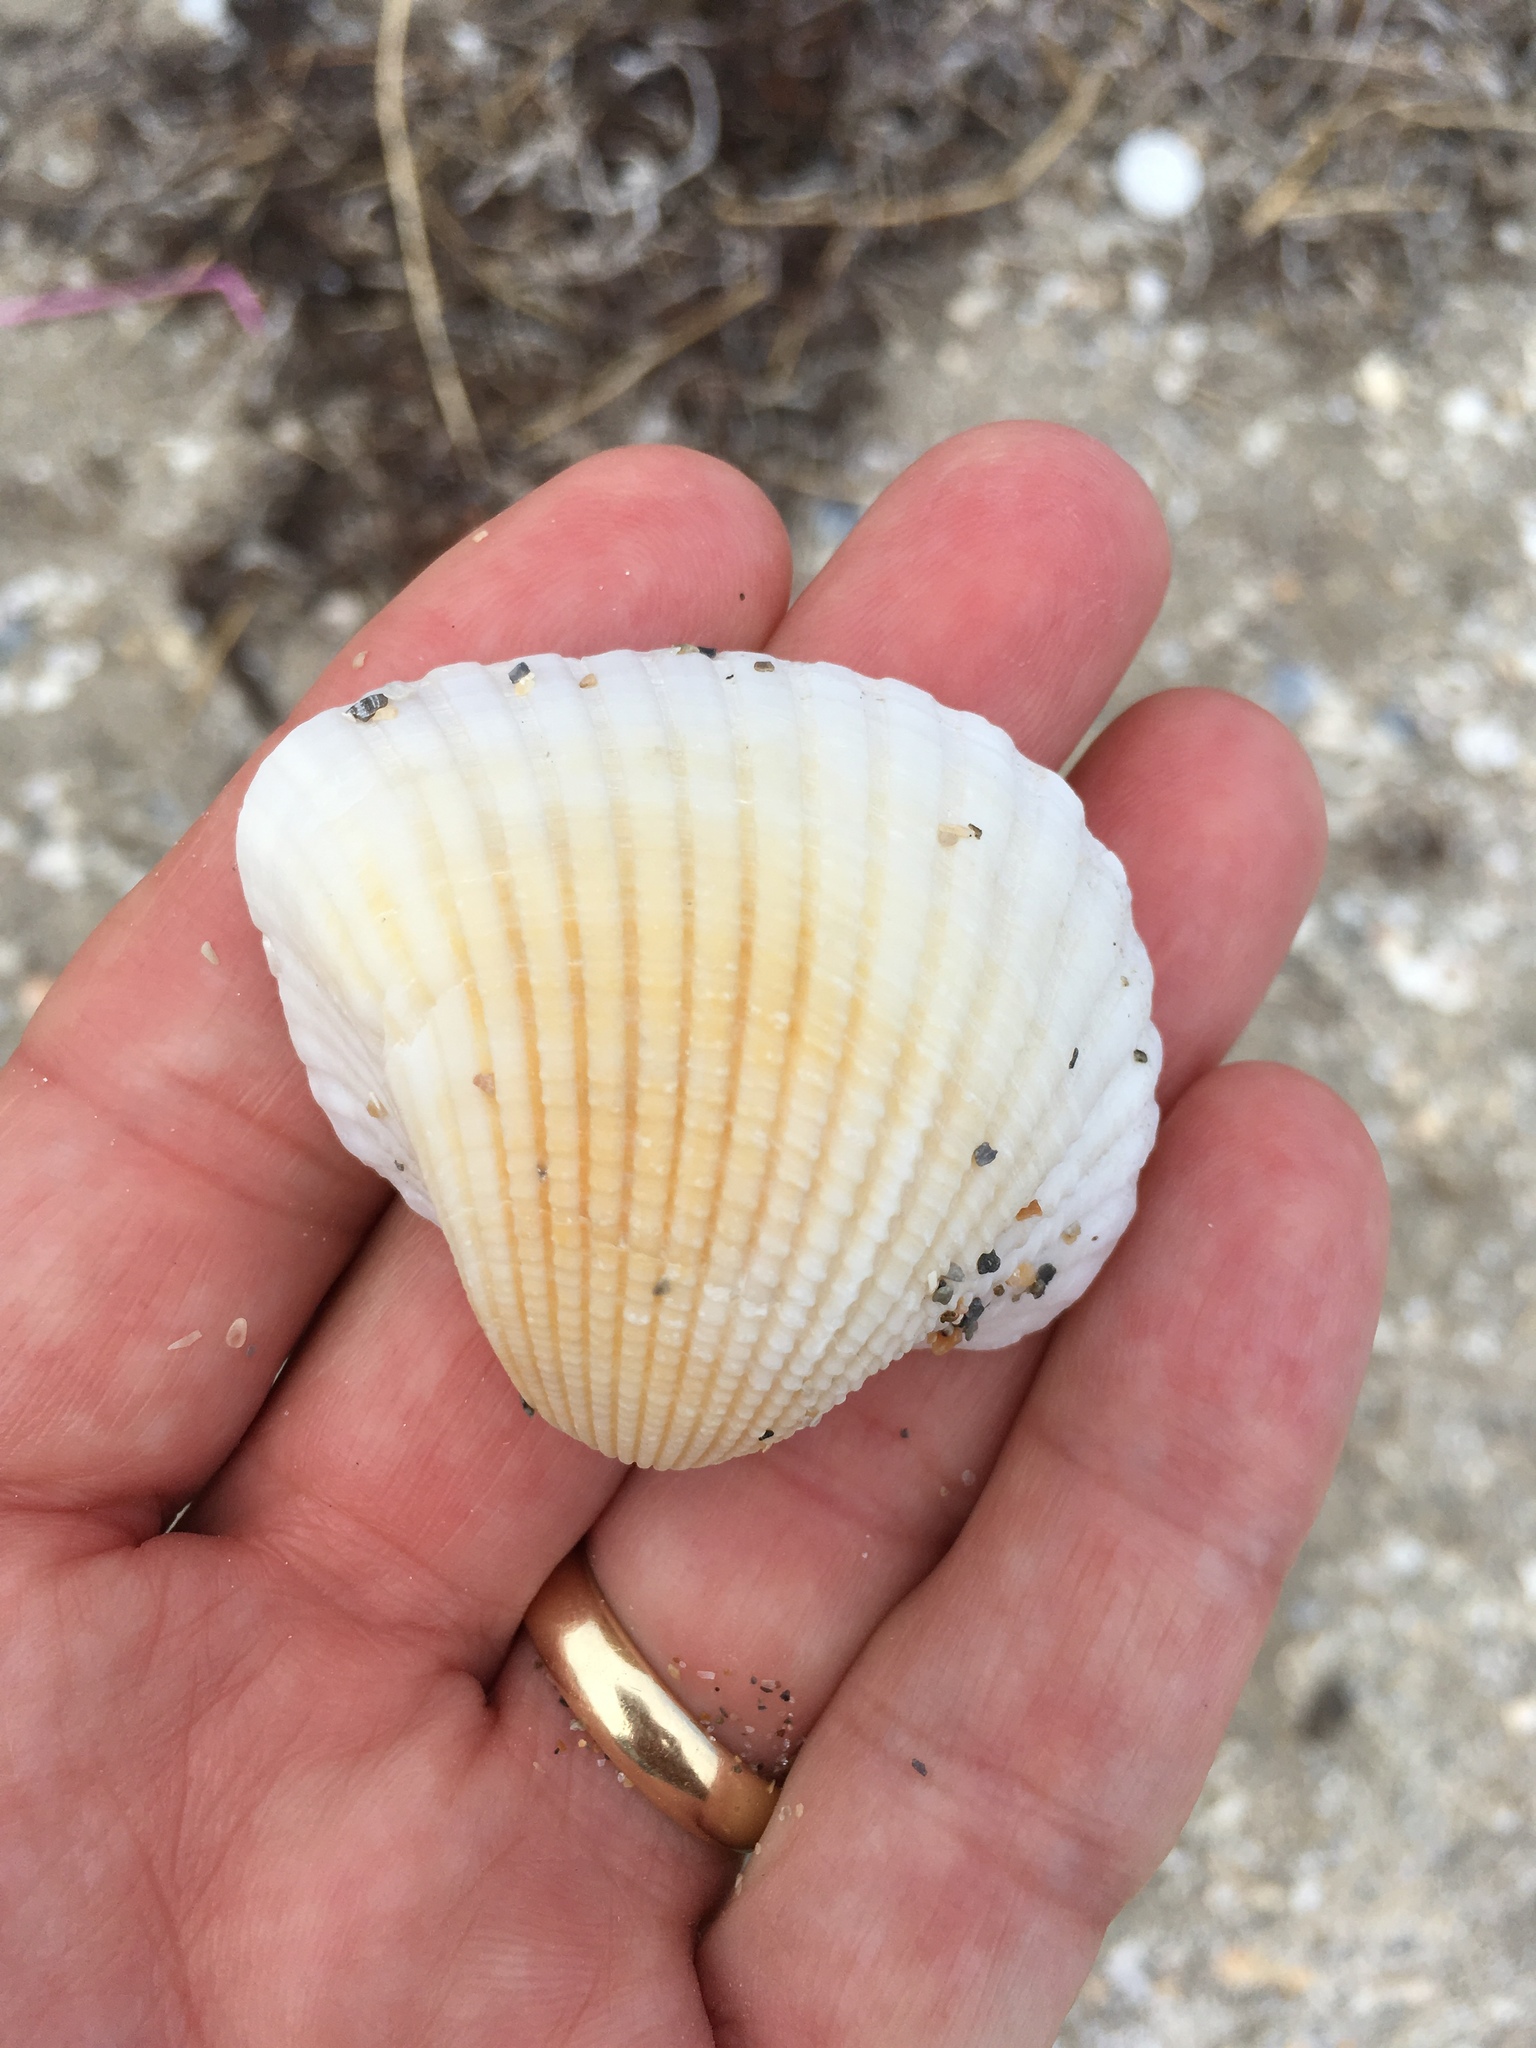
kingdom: Animalia
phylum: Mollusca
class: Bivalvia
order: Arcida
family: Arcidae
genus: Anadara
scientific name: Anadara brasiliana
